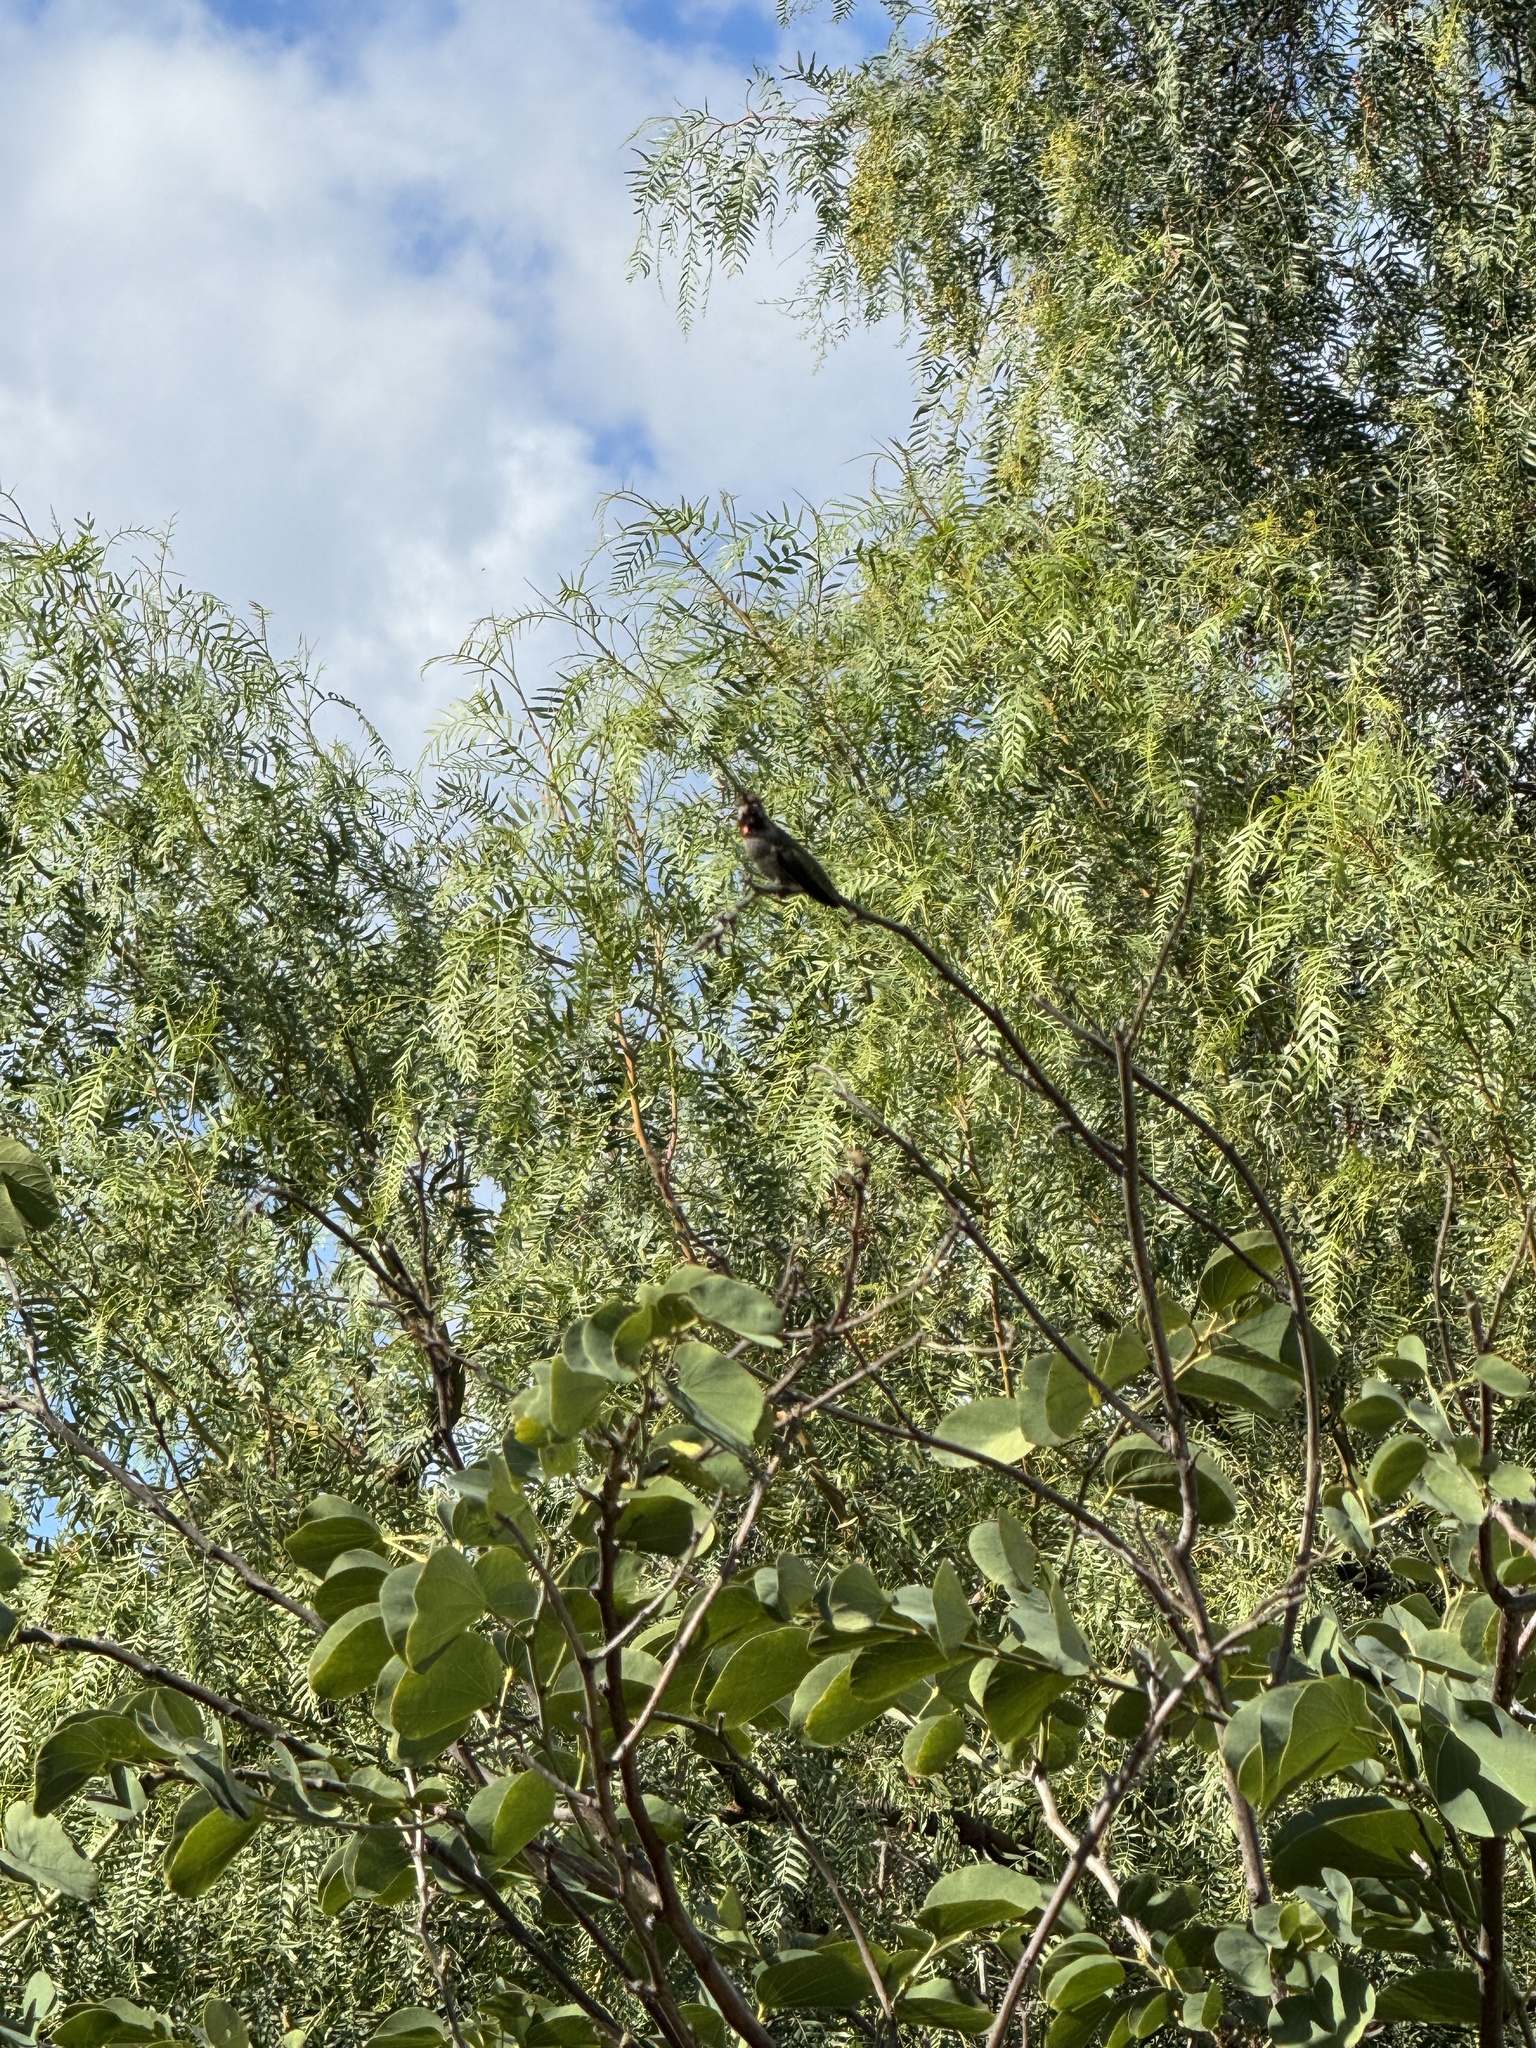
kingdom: Animalia
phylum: Chordata
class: Aves
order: Apodiformes
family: Trochilidae
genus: Calypte
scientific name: Calypte anna
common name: Anna's hummingbird
